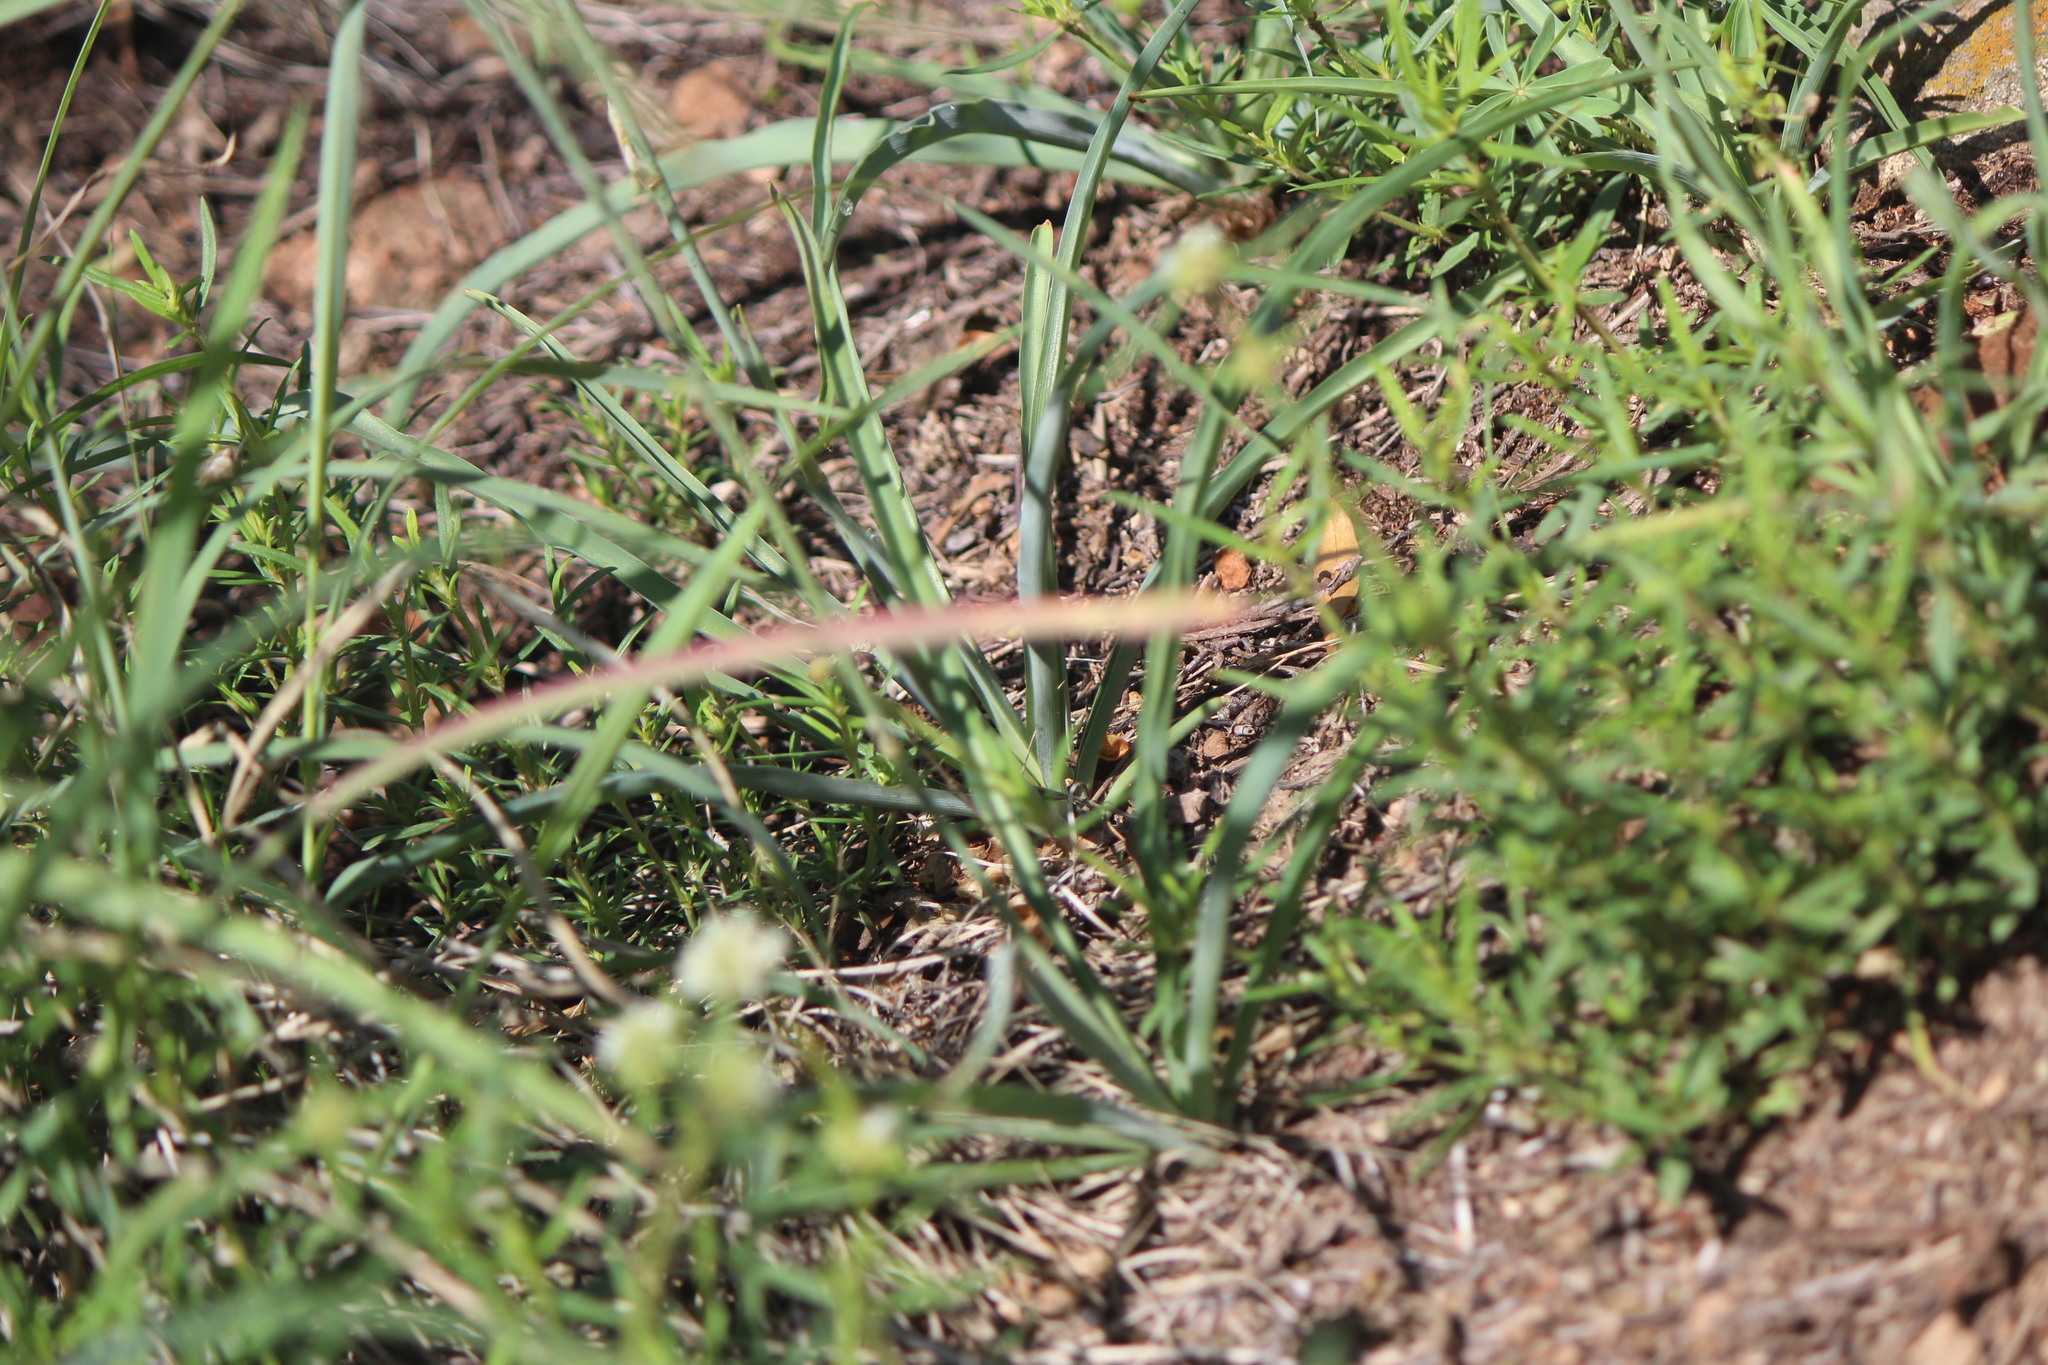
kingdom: Plantae
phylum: Tracheophyta
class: Liliopsida
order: Asparagales
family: Asparagaceae
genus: Echeandia
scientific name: Echeandia falcata
